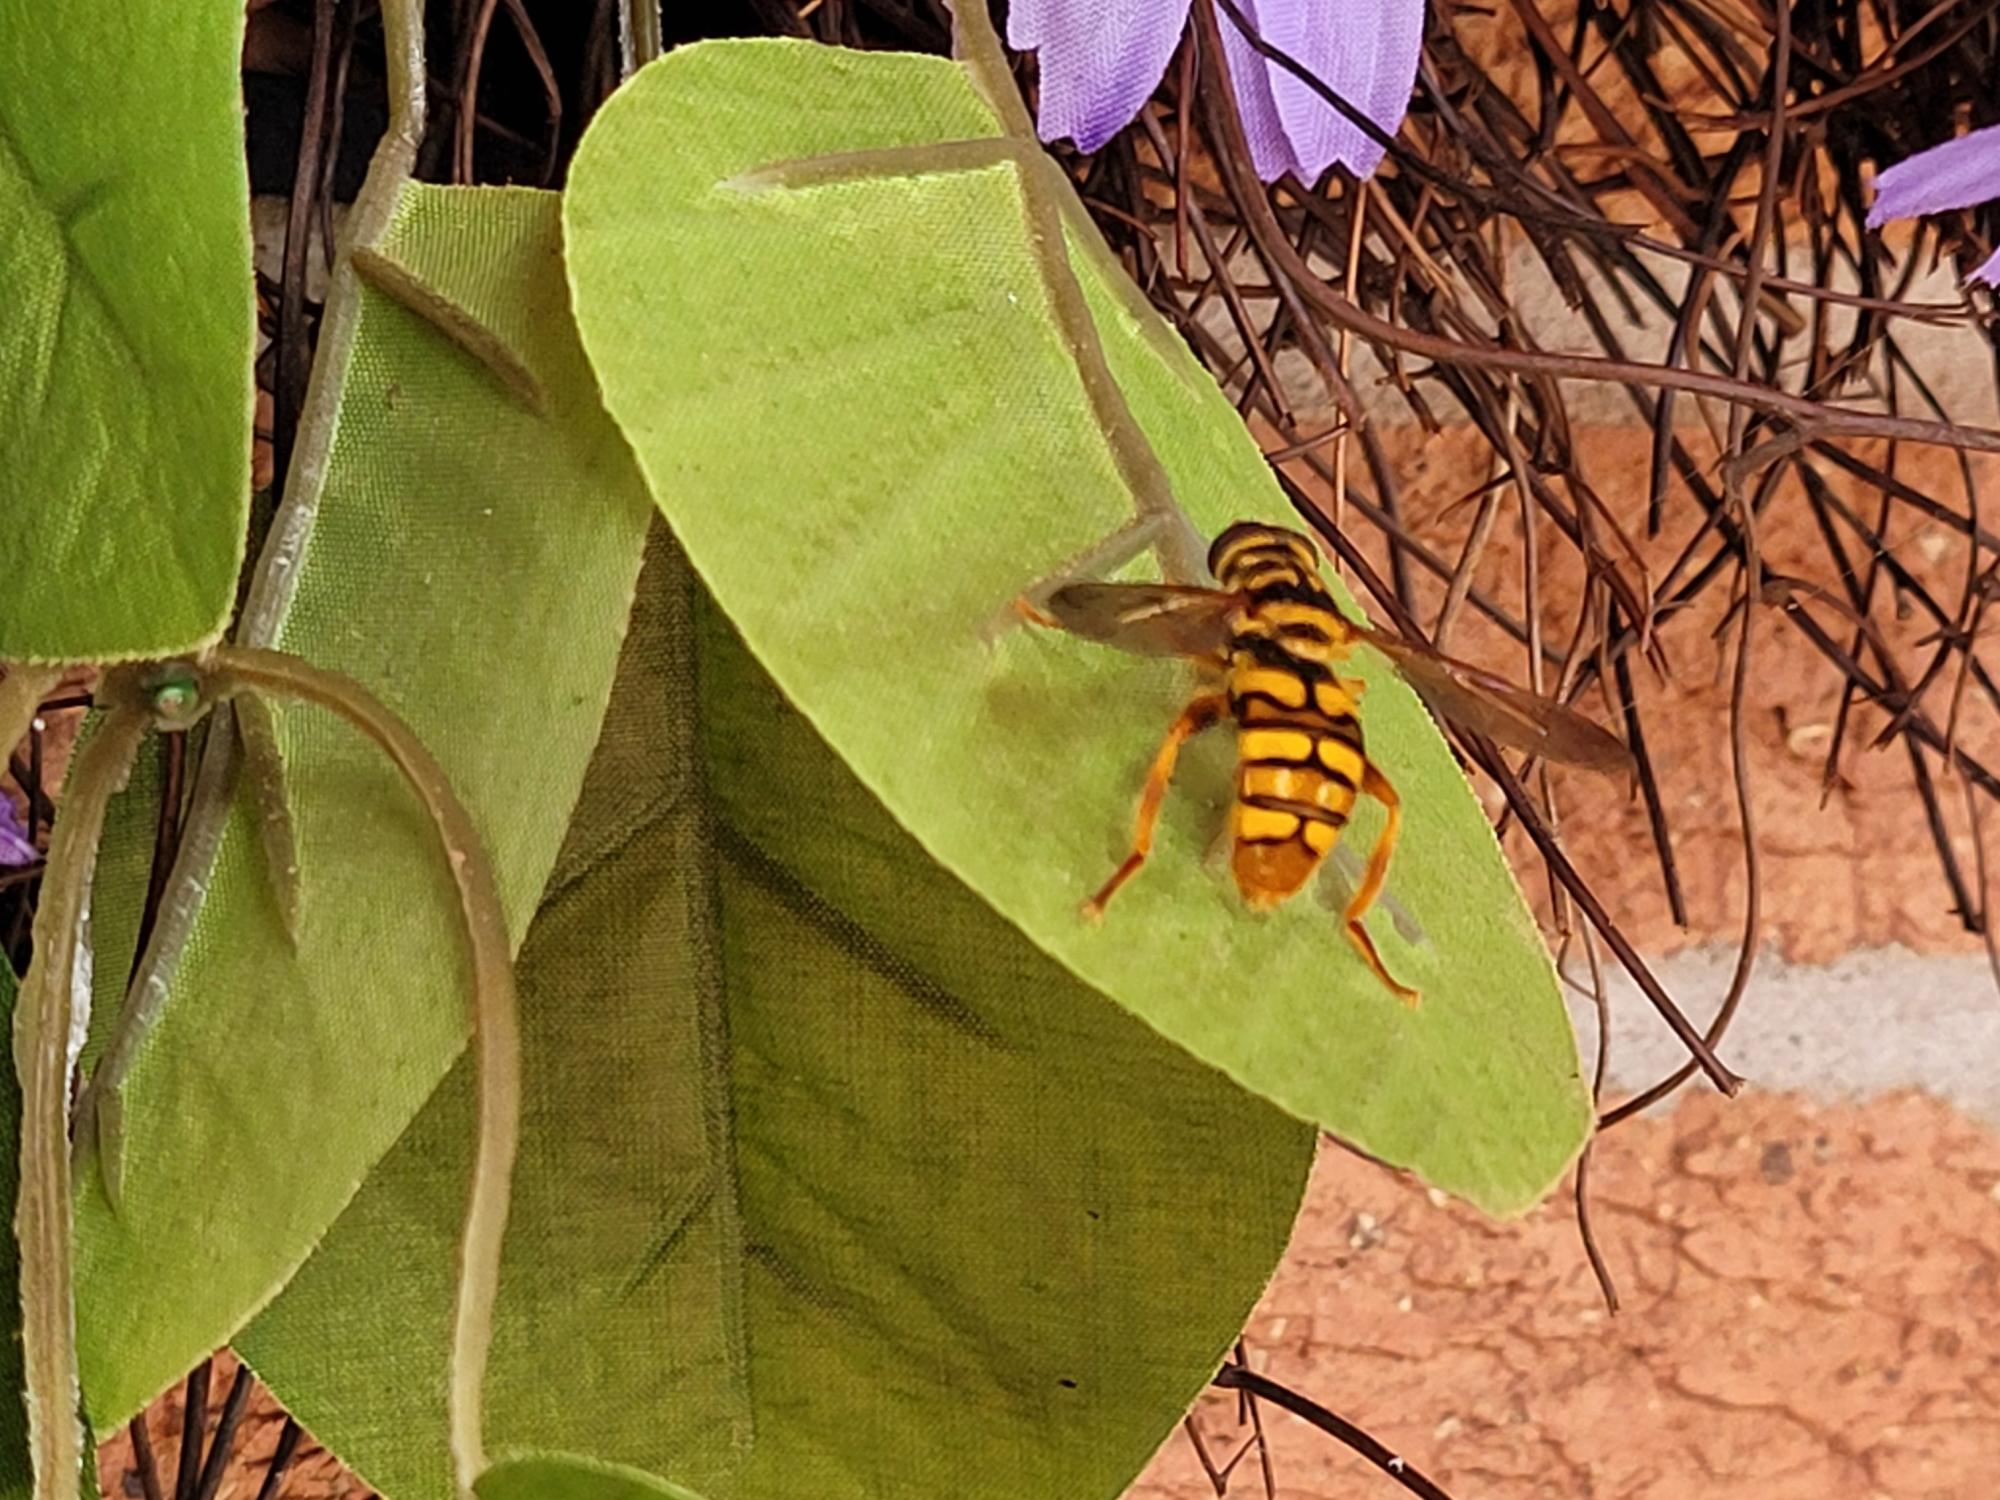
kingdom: Animalia
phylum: Arthropoda
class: Insecta
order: Diptera
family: Syrphidae
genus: Milesia
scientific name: Milesia virginiensis
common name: Virginia giant
